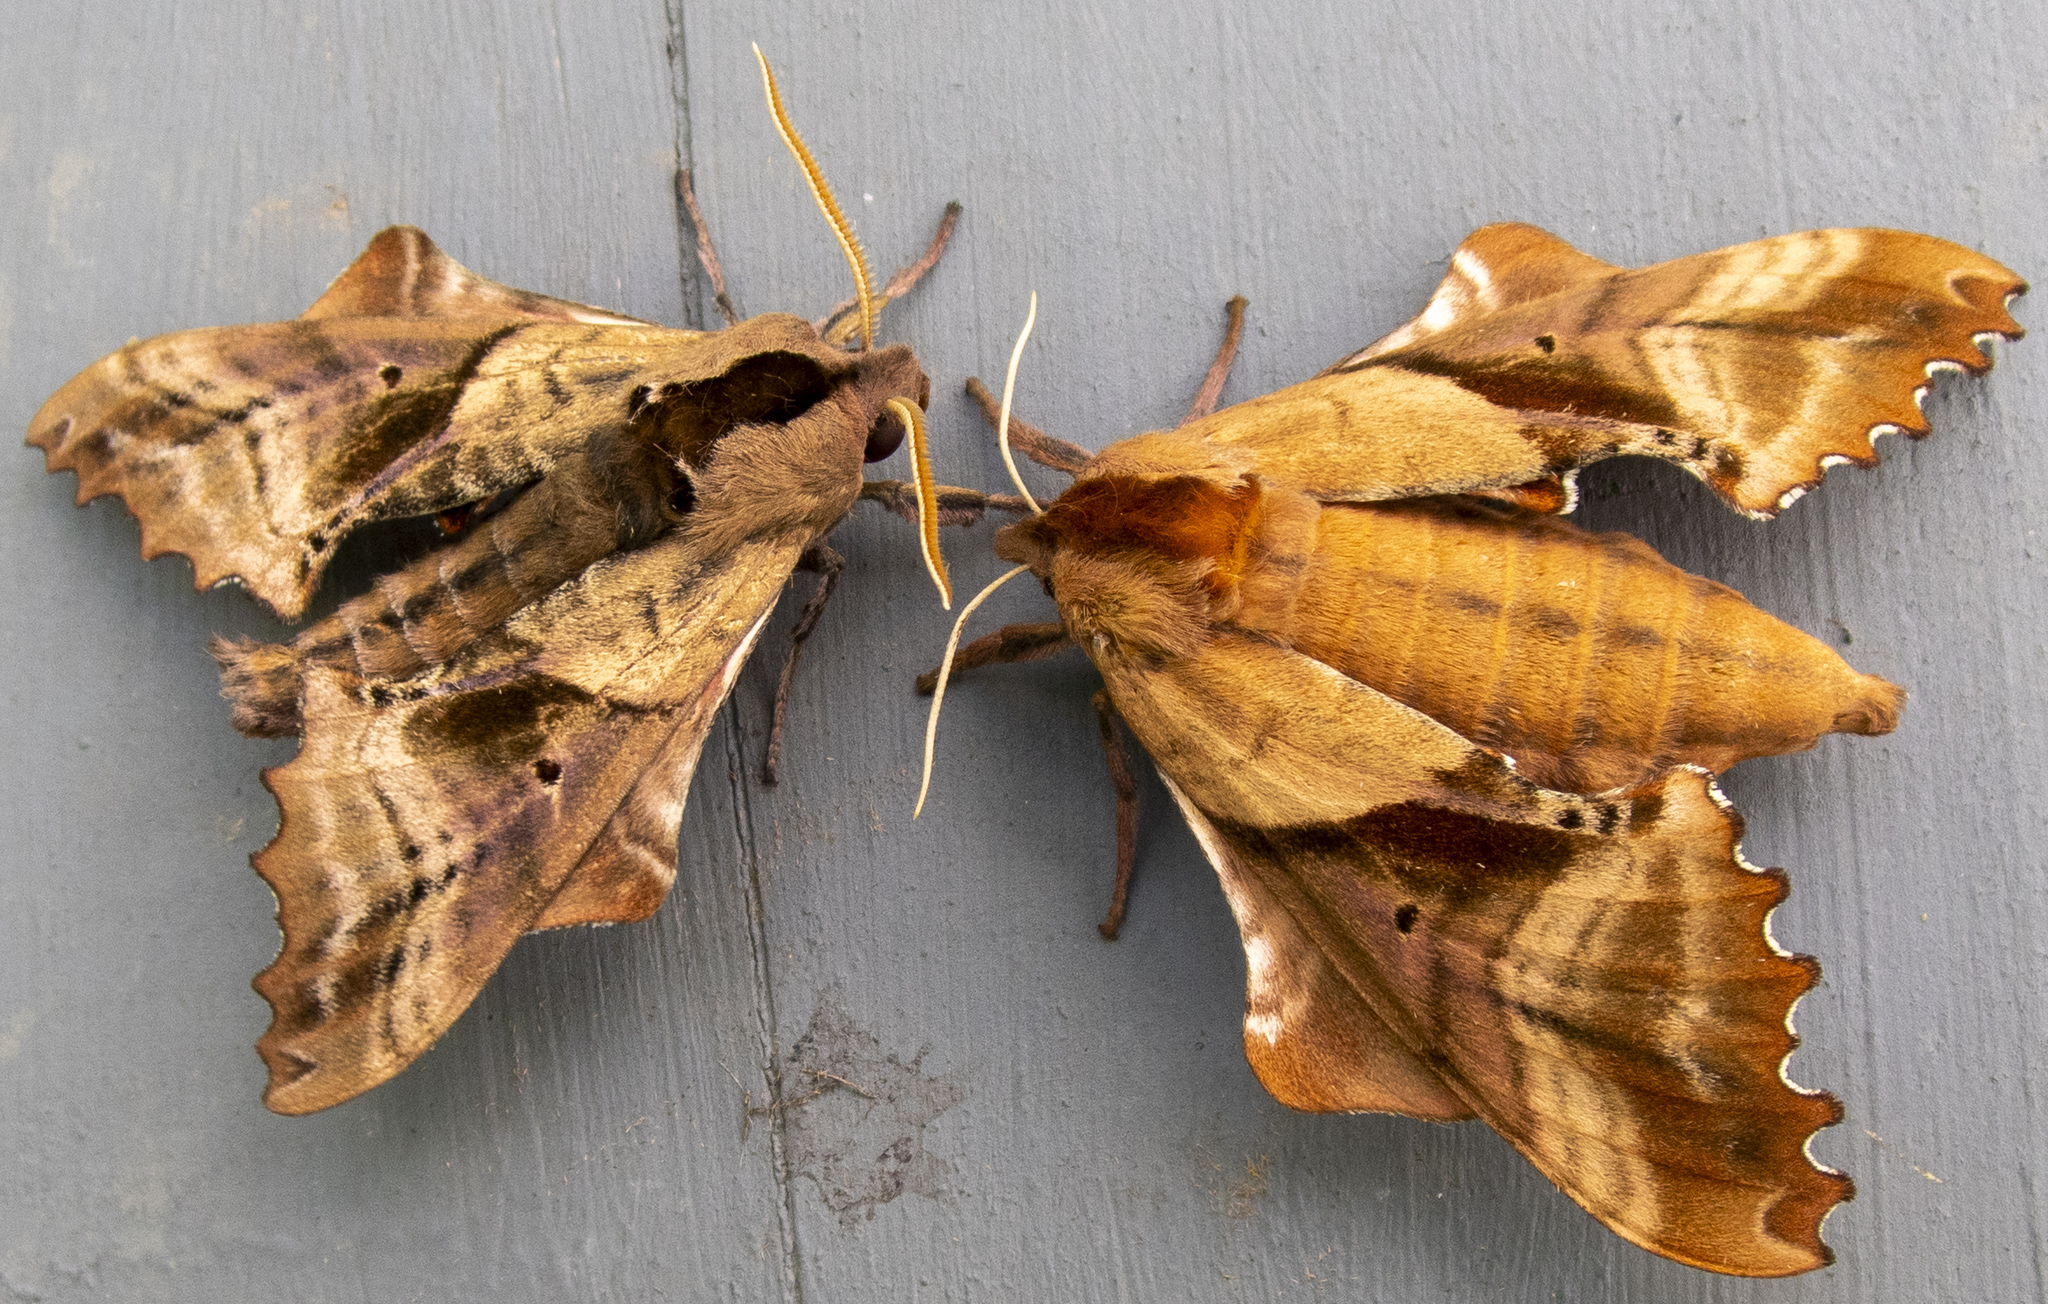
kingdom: Animalia
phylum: Arthropoda
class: Insecta
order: Lepidoptera
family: Sphingidae
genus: Paonias
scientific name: Paonias excaecata
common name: Blind-eyed sphinx
